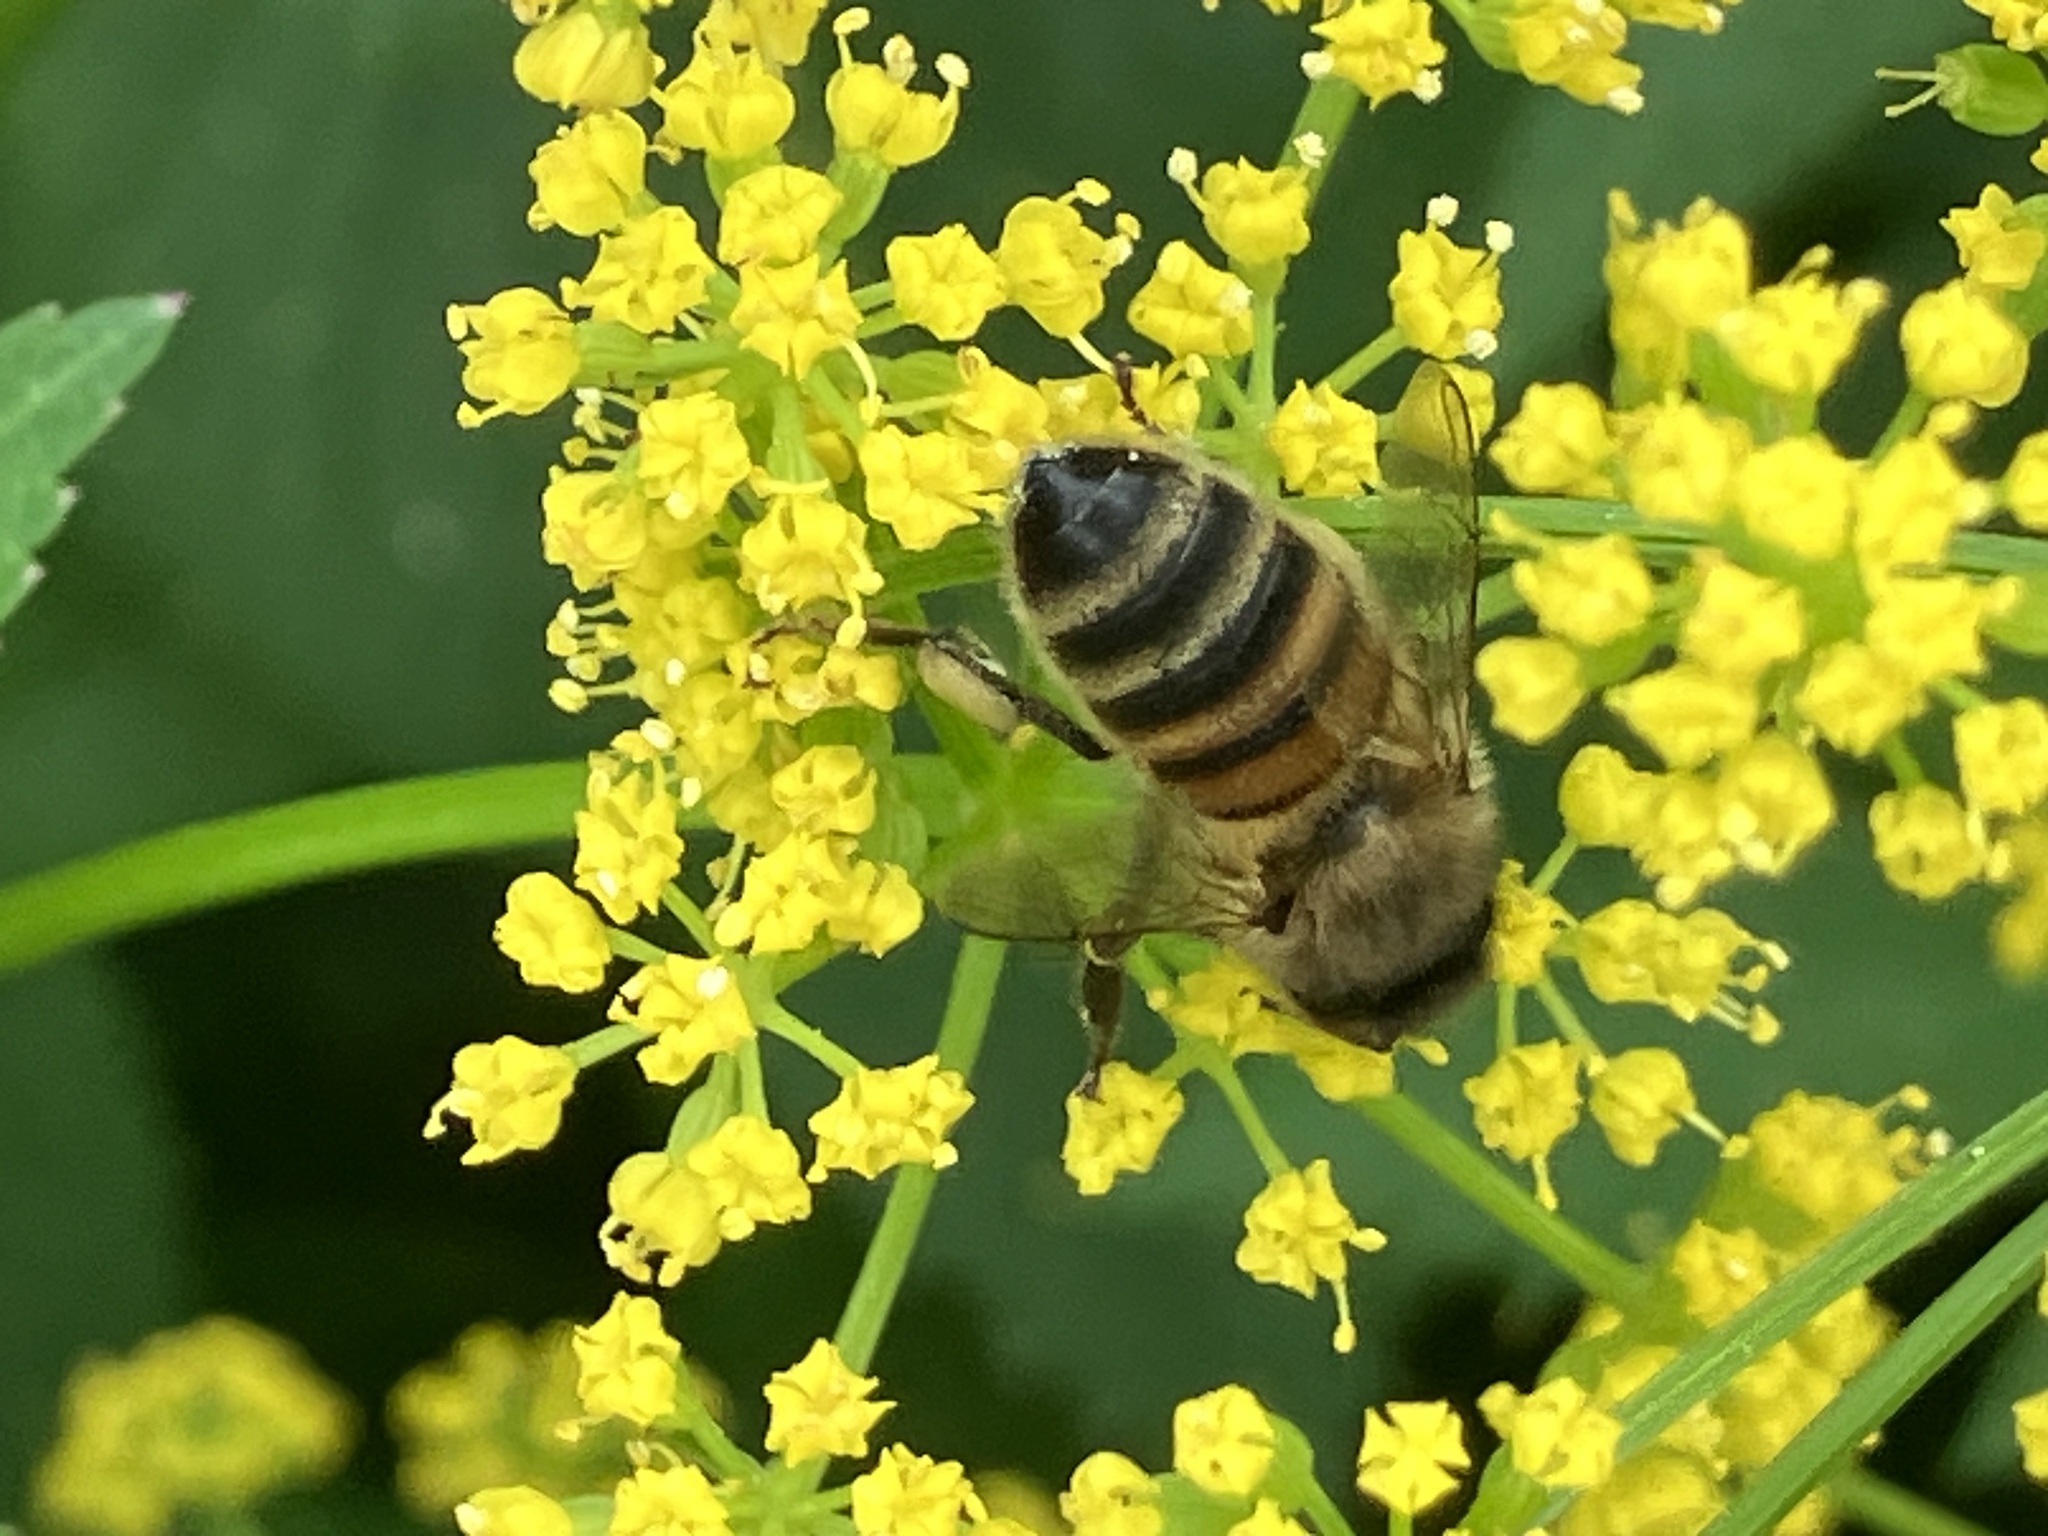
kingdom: Animalia
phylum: Arthropoda
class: Insecta
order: Hymenoptera
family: Apidae
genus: Apis
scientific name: Apis mellifera
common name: Honey bee
